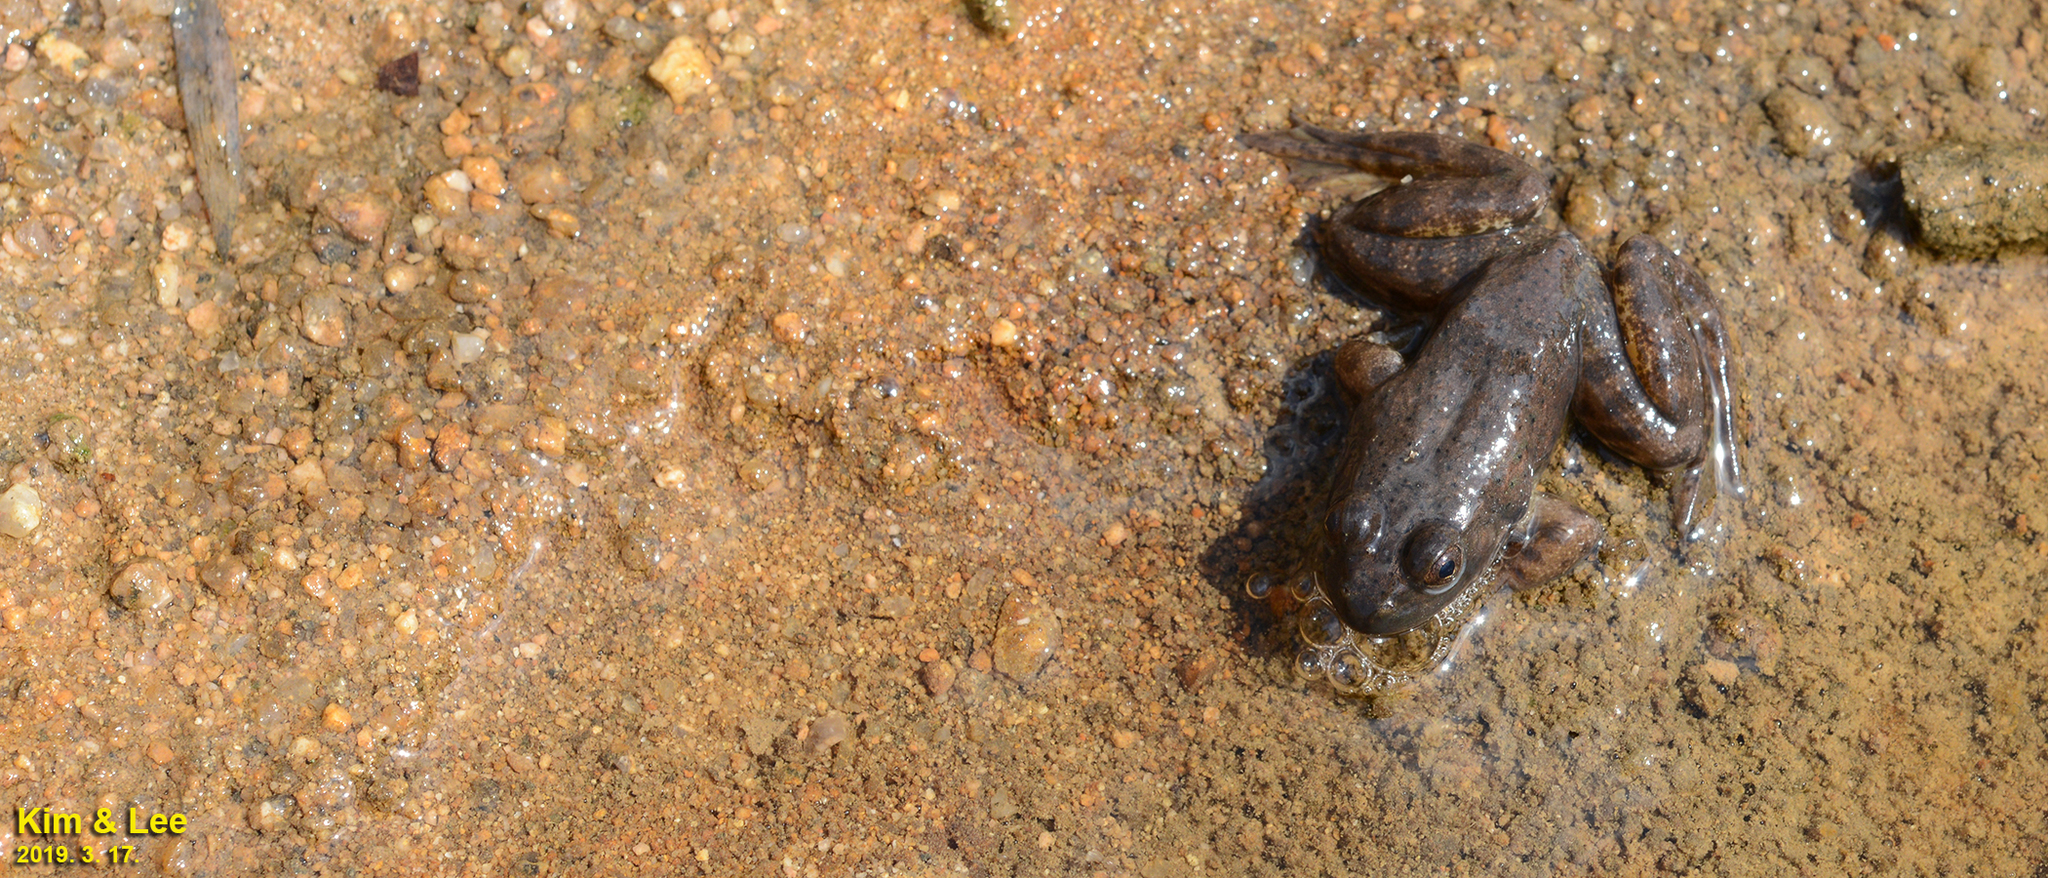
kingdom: Animalia
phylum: Chordata
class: Amphibia
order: Anura
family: Ranidae
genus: Lithobates
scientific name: Lithobates catesbeianus
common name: American bullfrog
